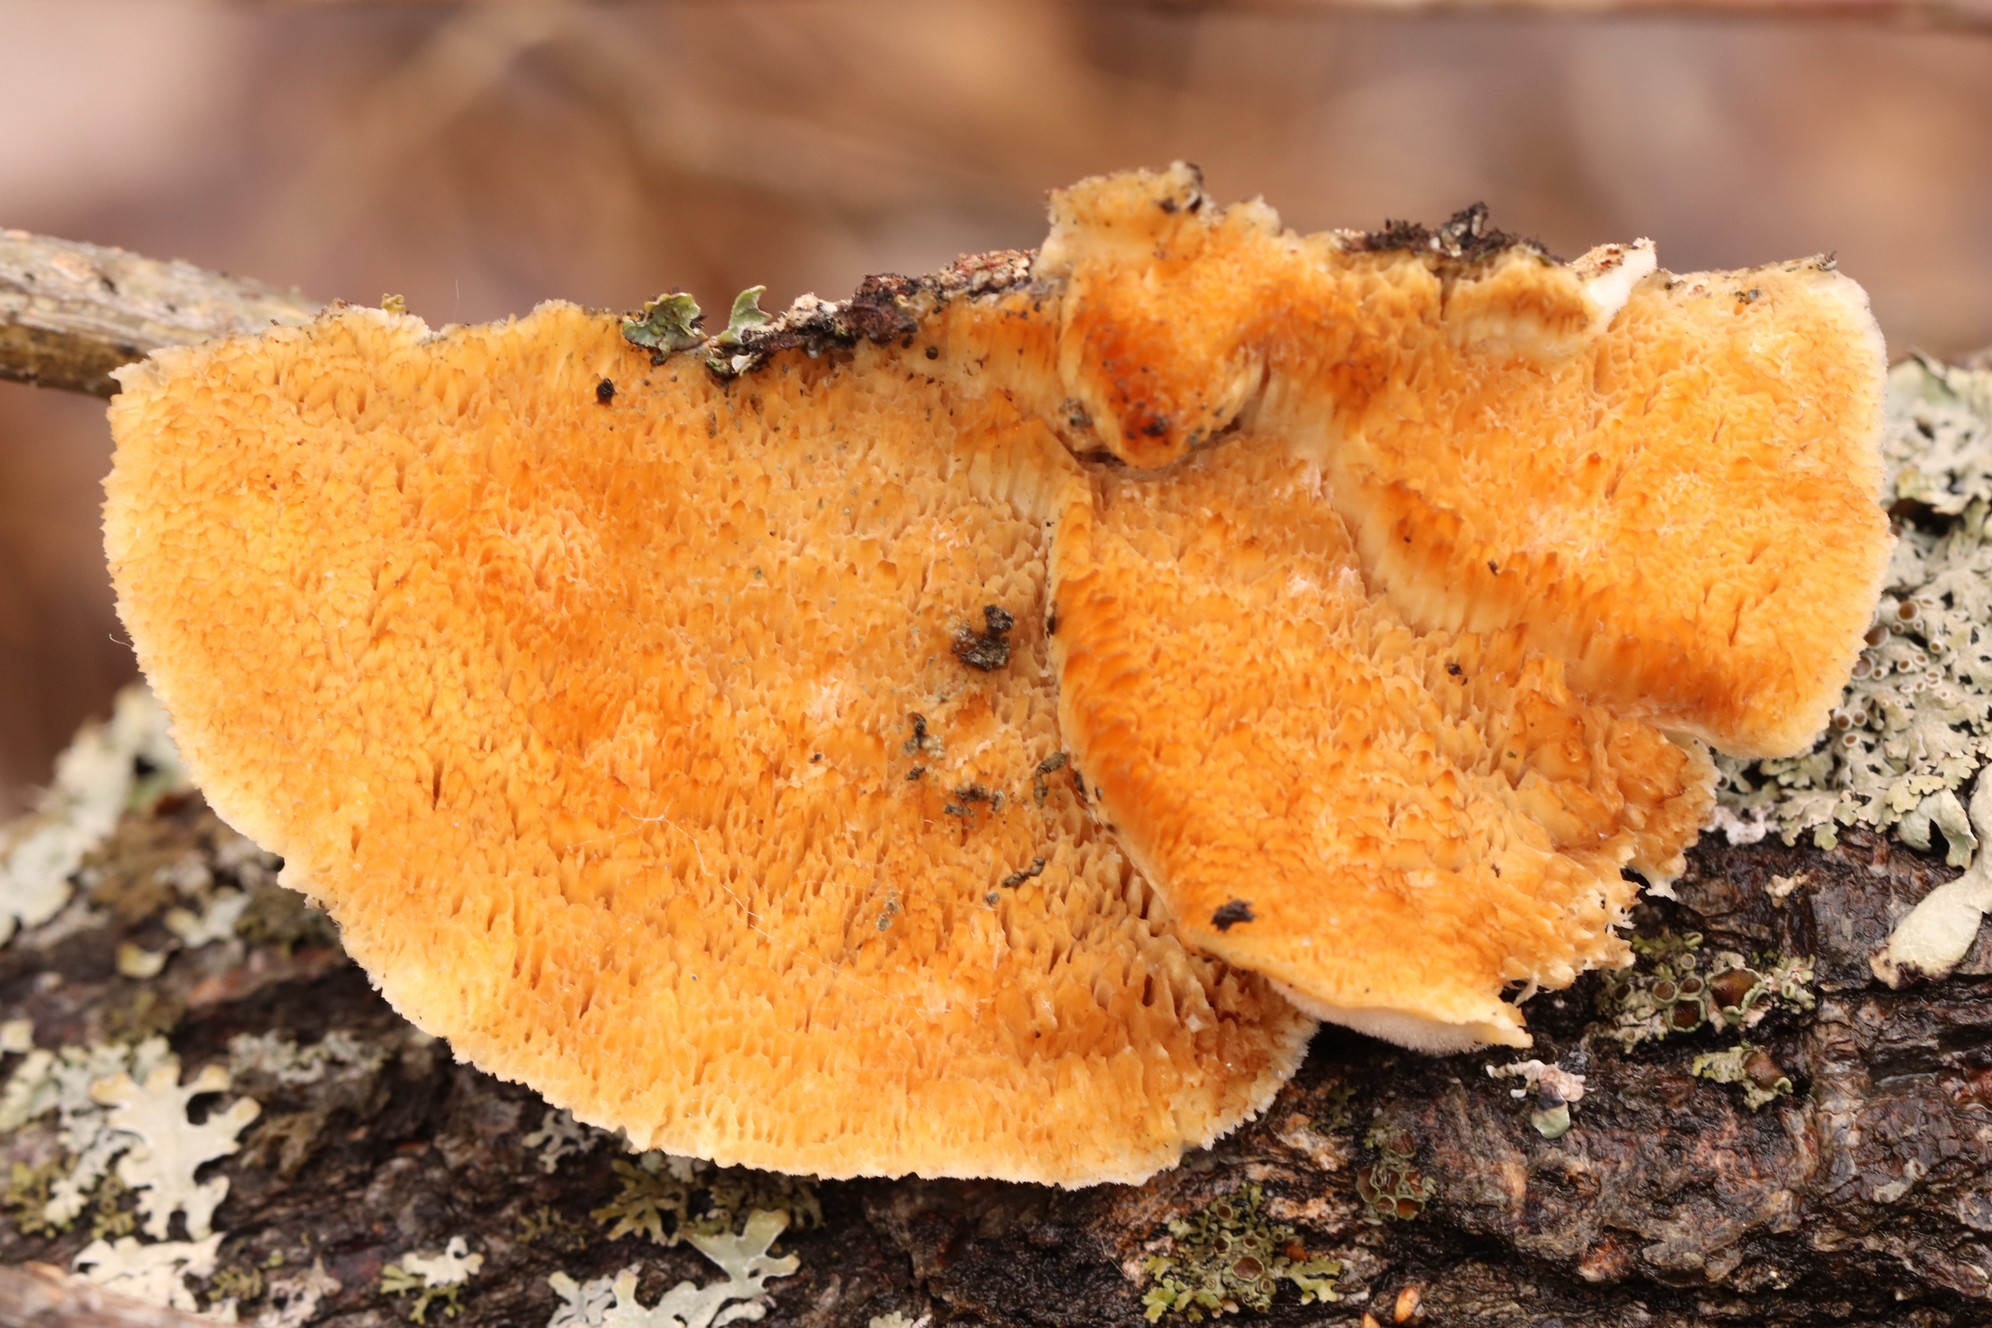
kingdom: Fungi
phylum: Basidiomycota
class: Agaricomycetes
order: Polyporales
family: Polyporaceae
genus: Trametes
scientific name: Trametes suaveolens
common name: Fragrant bracket
